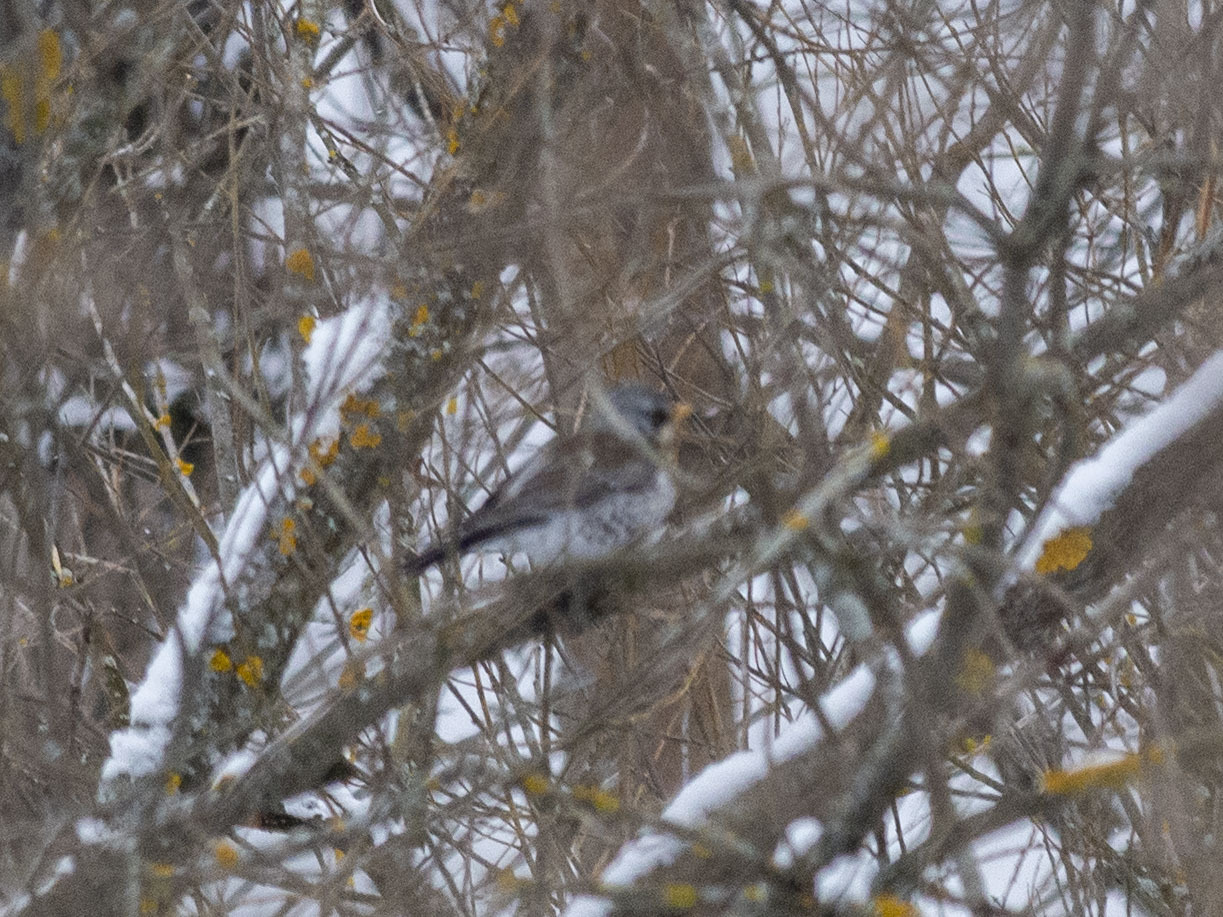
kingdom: Animalia
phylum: Chordata
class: Aves
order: Passeriformes
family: Turdidae
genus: Turdus
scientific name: Turdus pilaris
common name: Fieldfare
